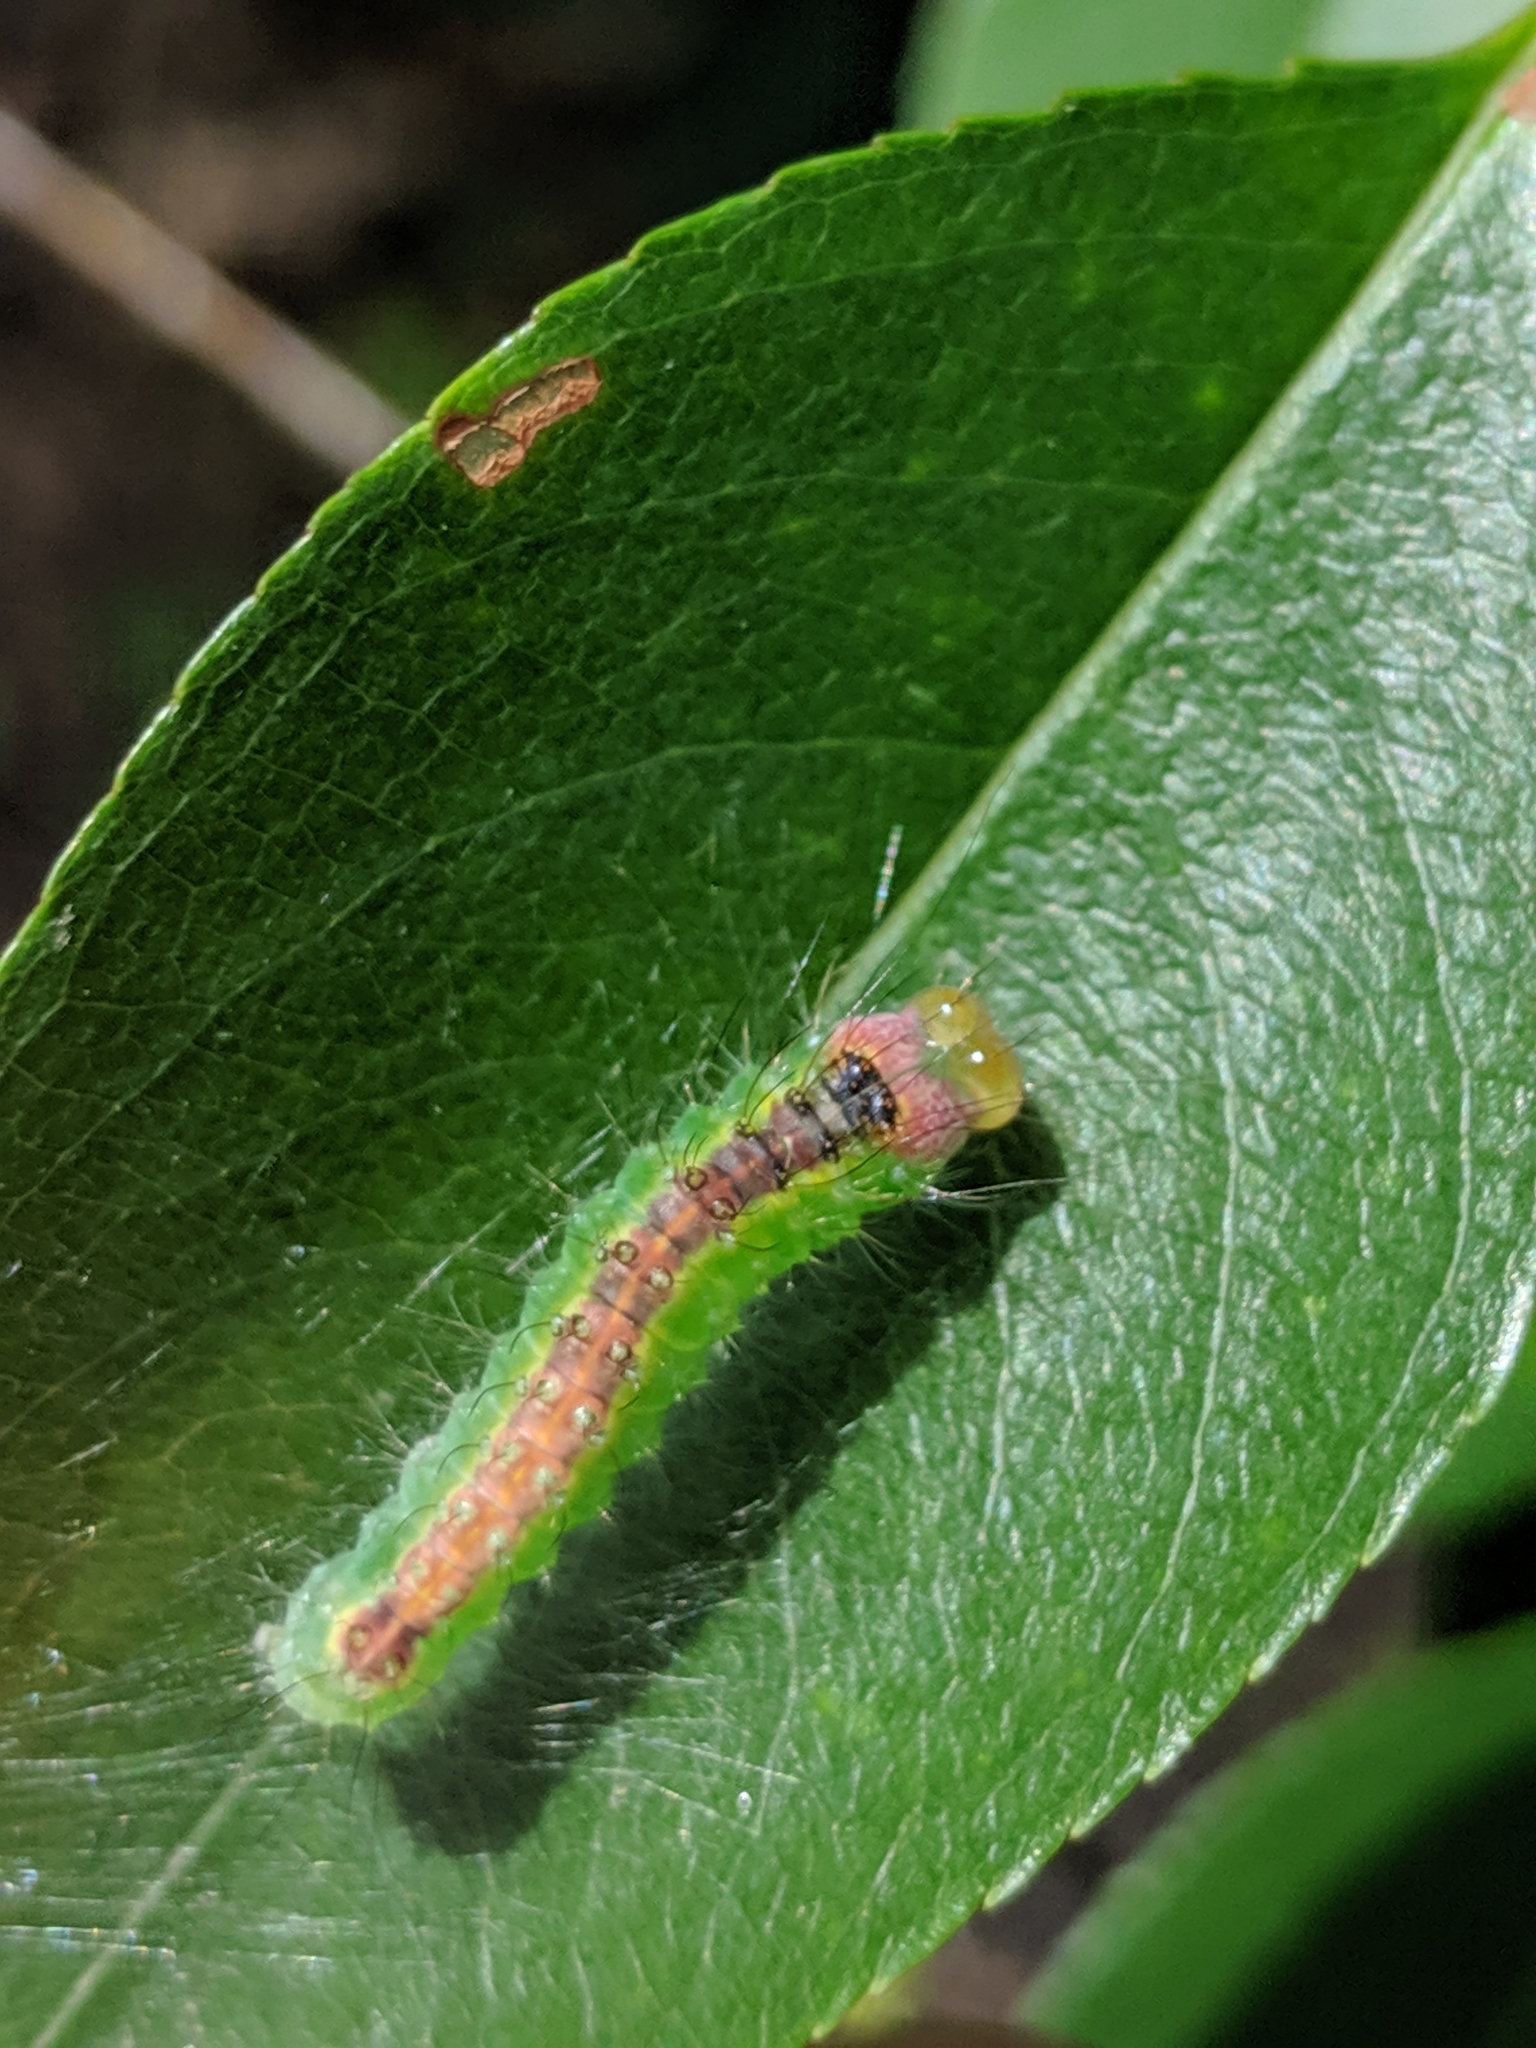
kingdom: Animalia
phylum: Arthropoda
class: Insecta
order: Lepidoptera
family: Noctuidae
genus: Acronicta
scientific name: Acronicta radcliffei
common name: Radcliffe's dagger
